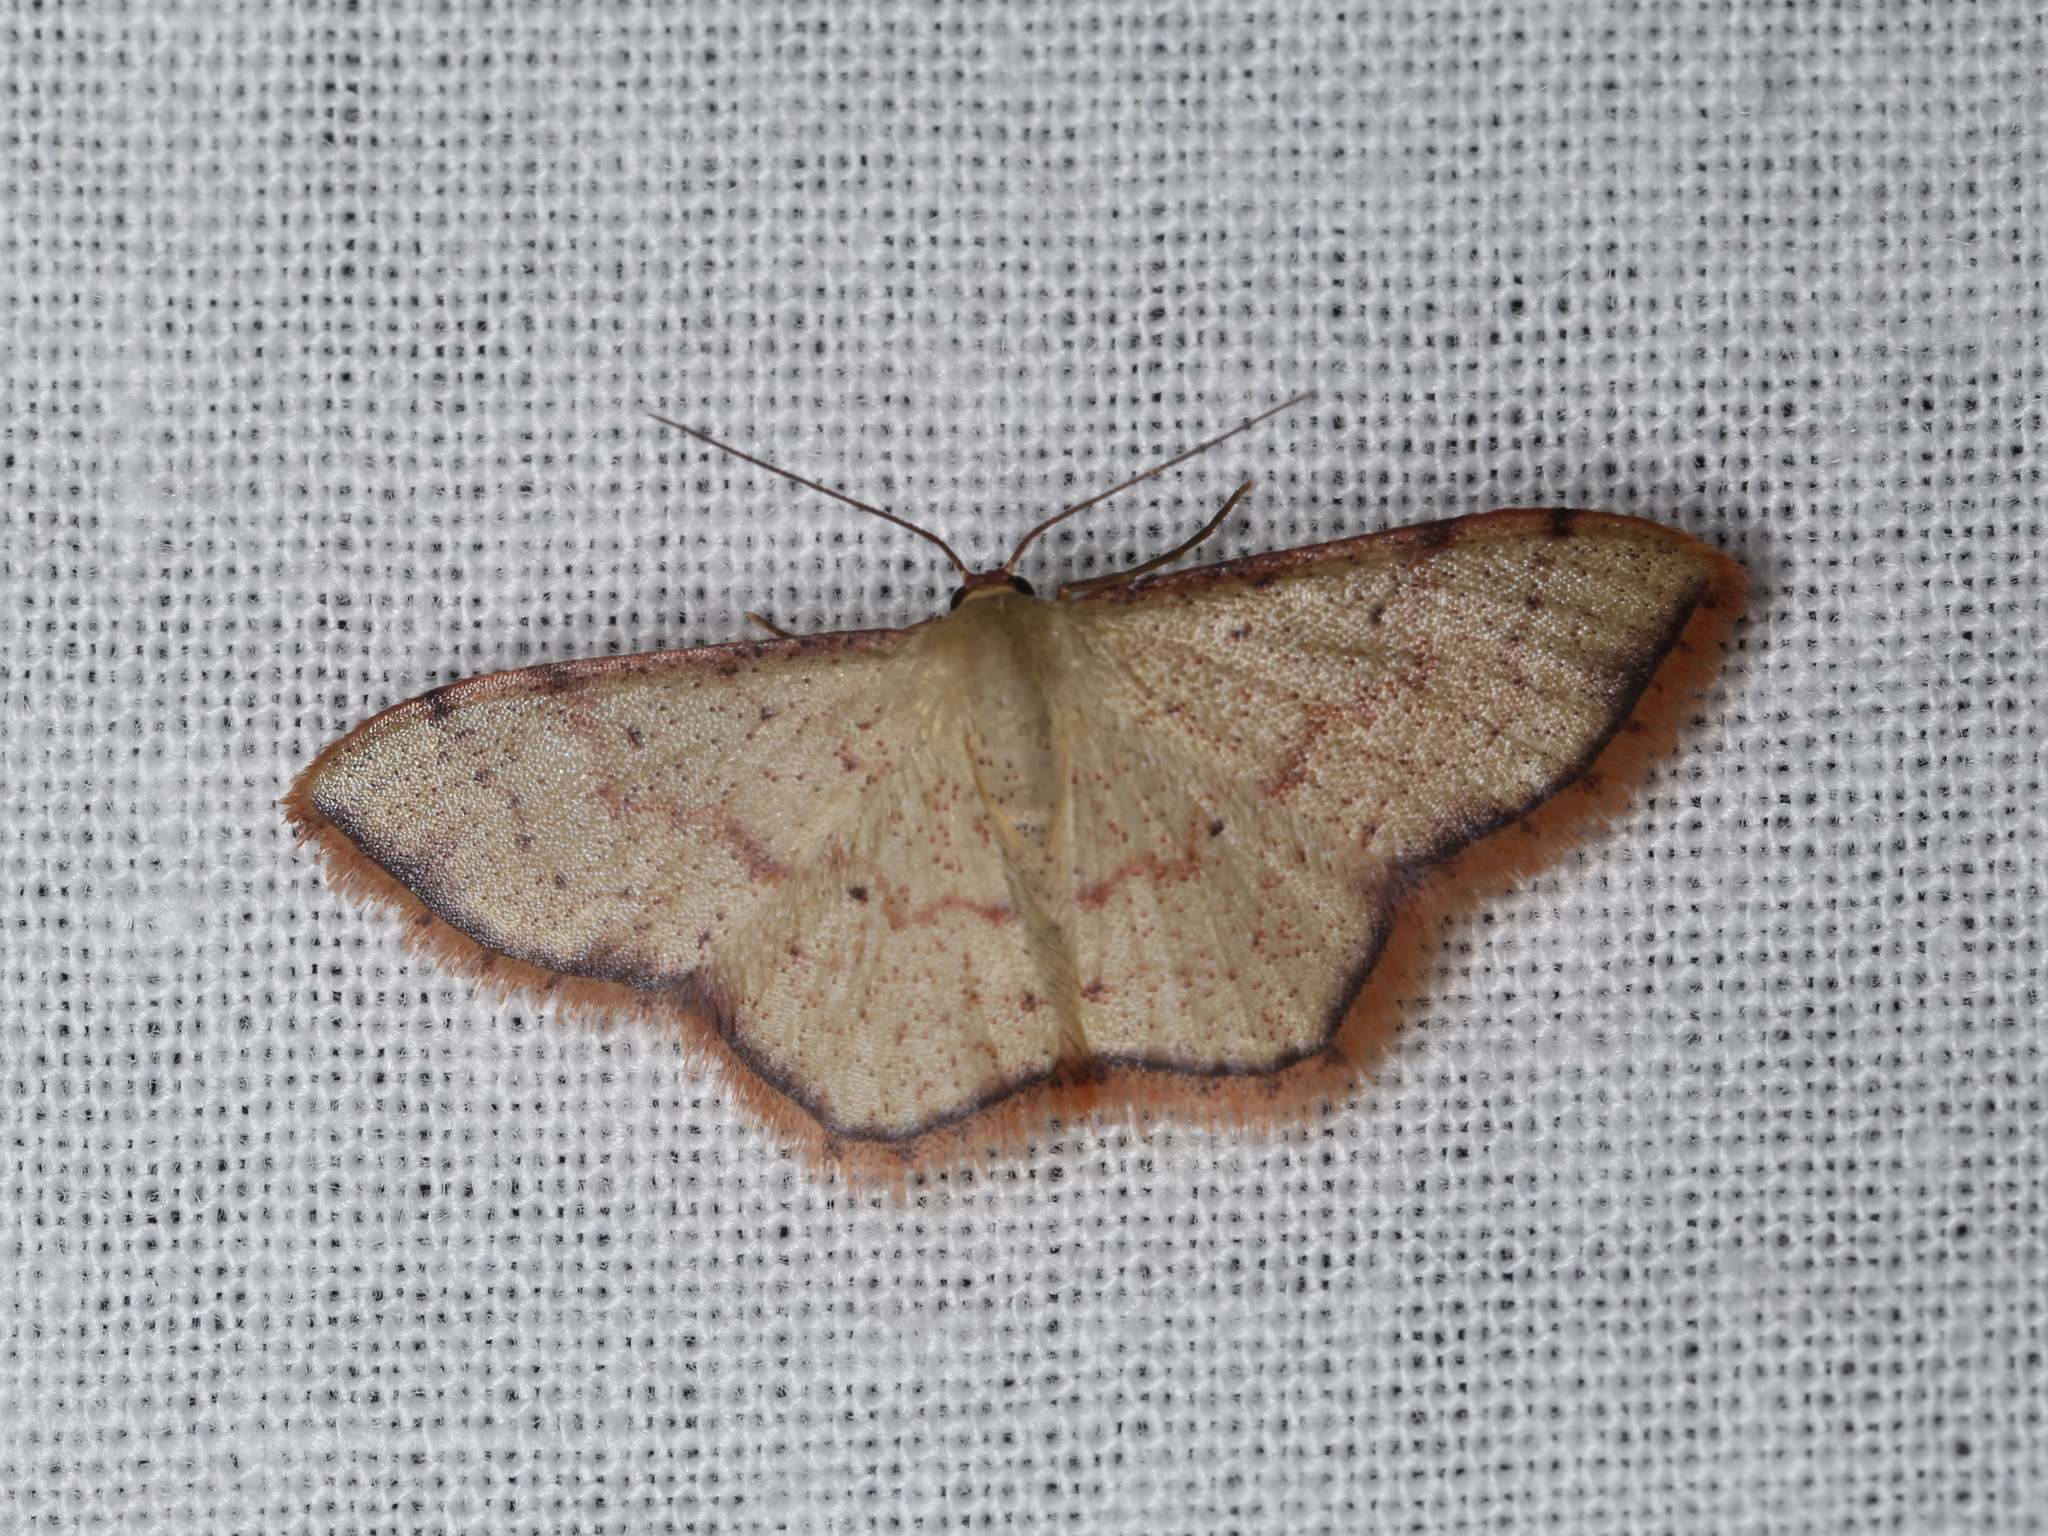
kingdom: Animalia
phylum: Arthropoda
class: Insecta
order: Lepidoptera
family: Geometridae
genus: Idaea
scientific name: Idaea craspedota
